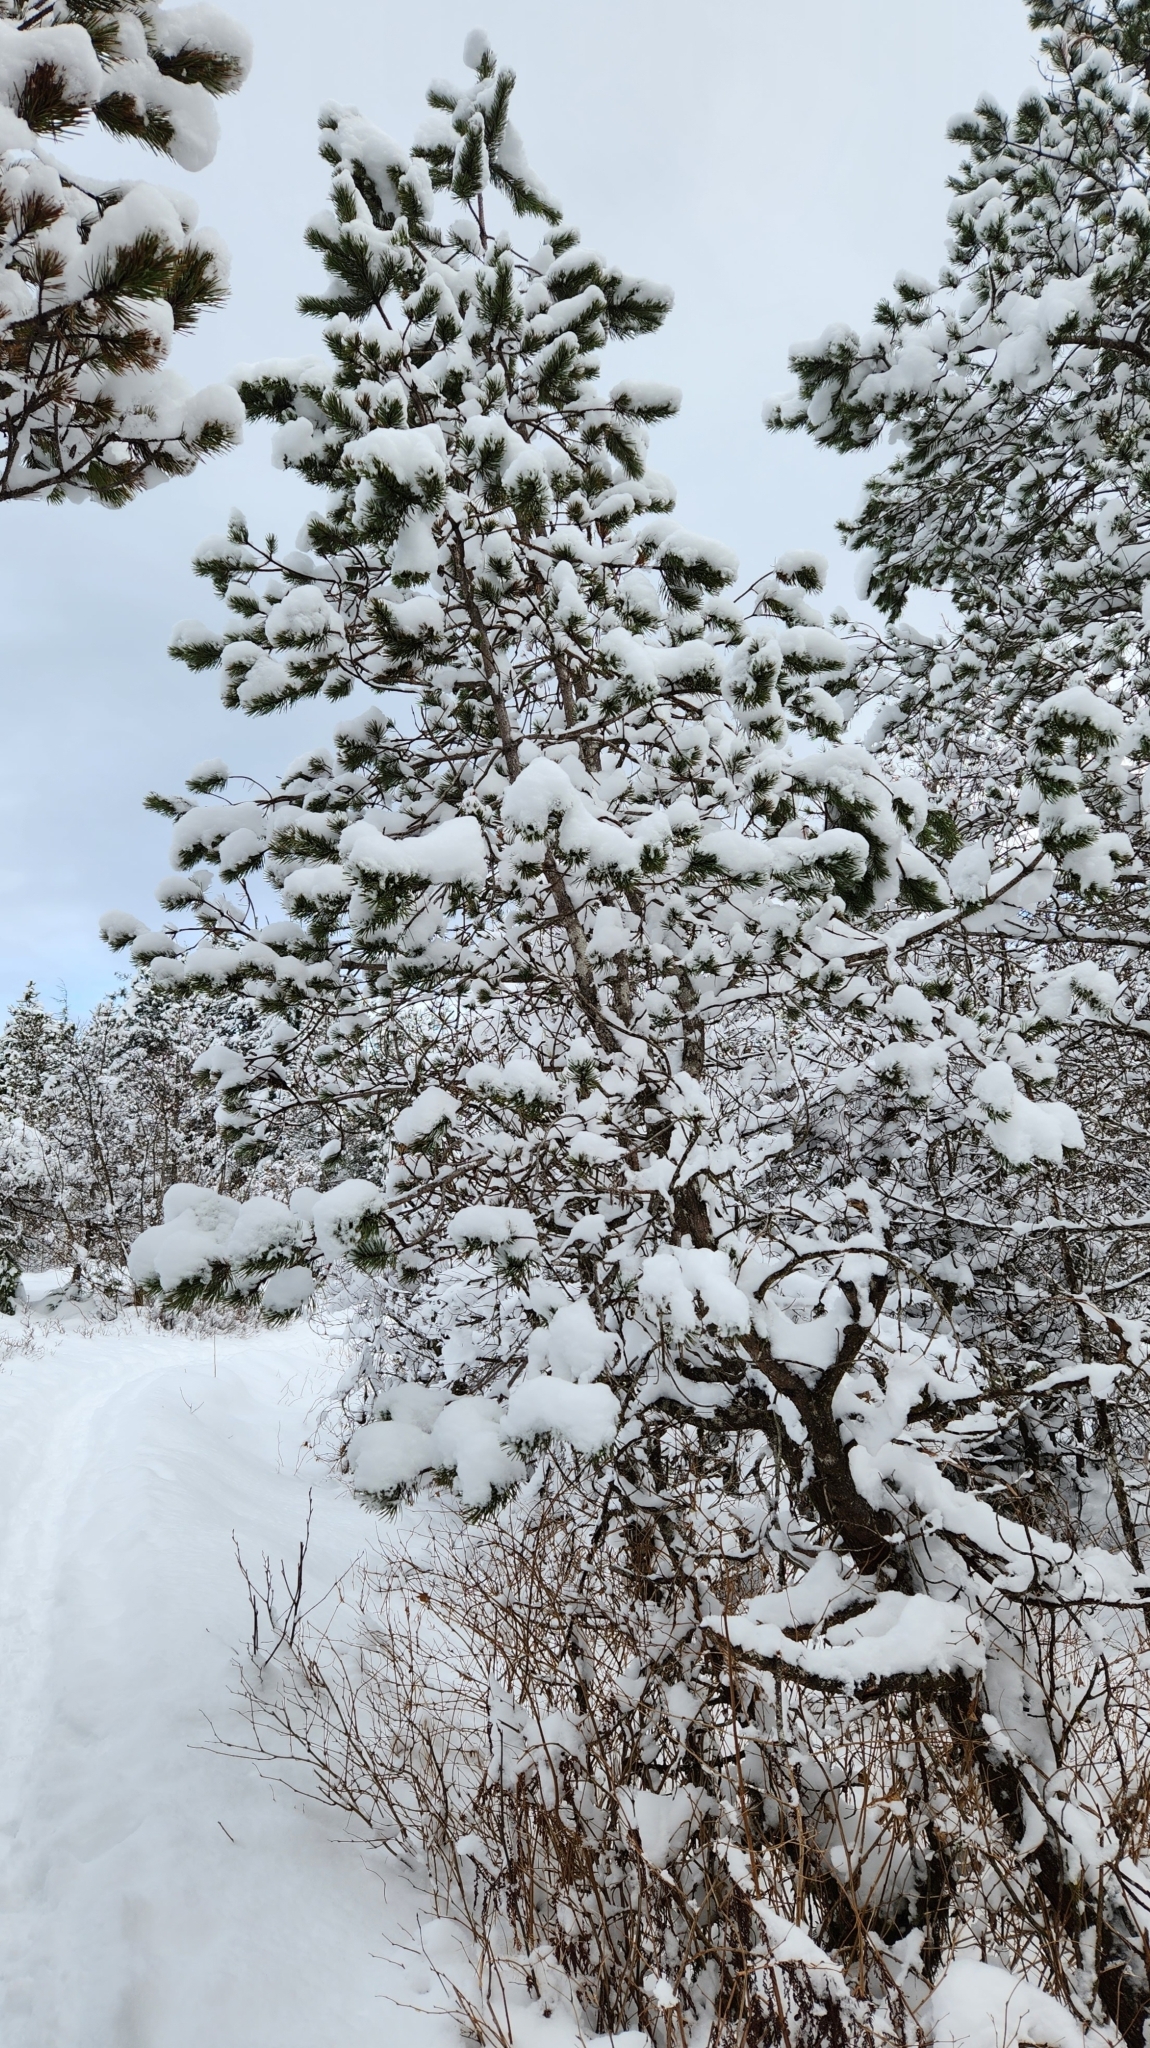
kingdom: Plantae
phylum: Tracheophyta
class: Pinopsida
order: Pinales
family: Pinaceae
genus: Pinus
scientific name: Pinus contorta
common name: Lodgepole pine
